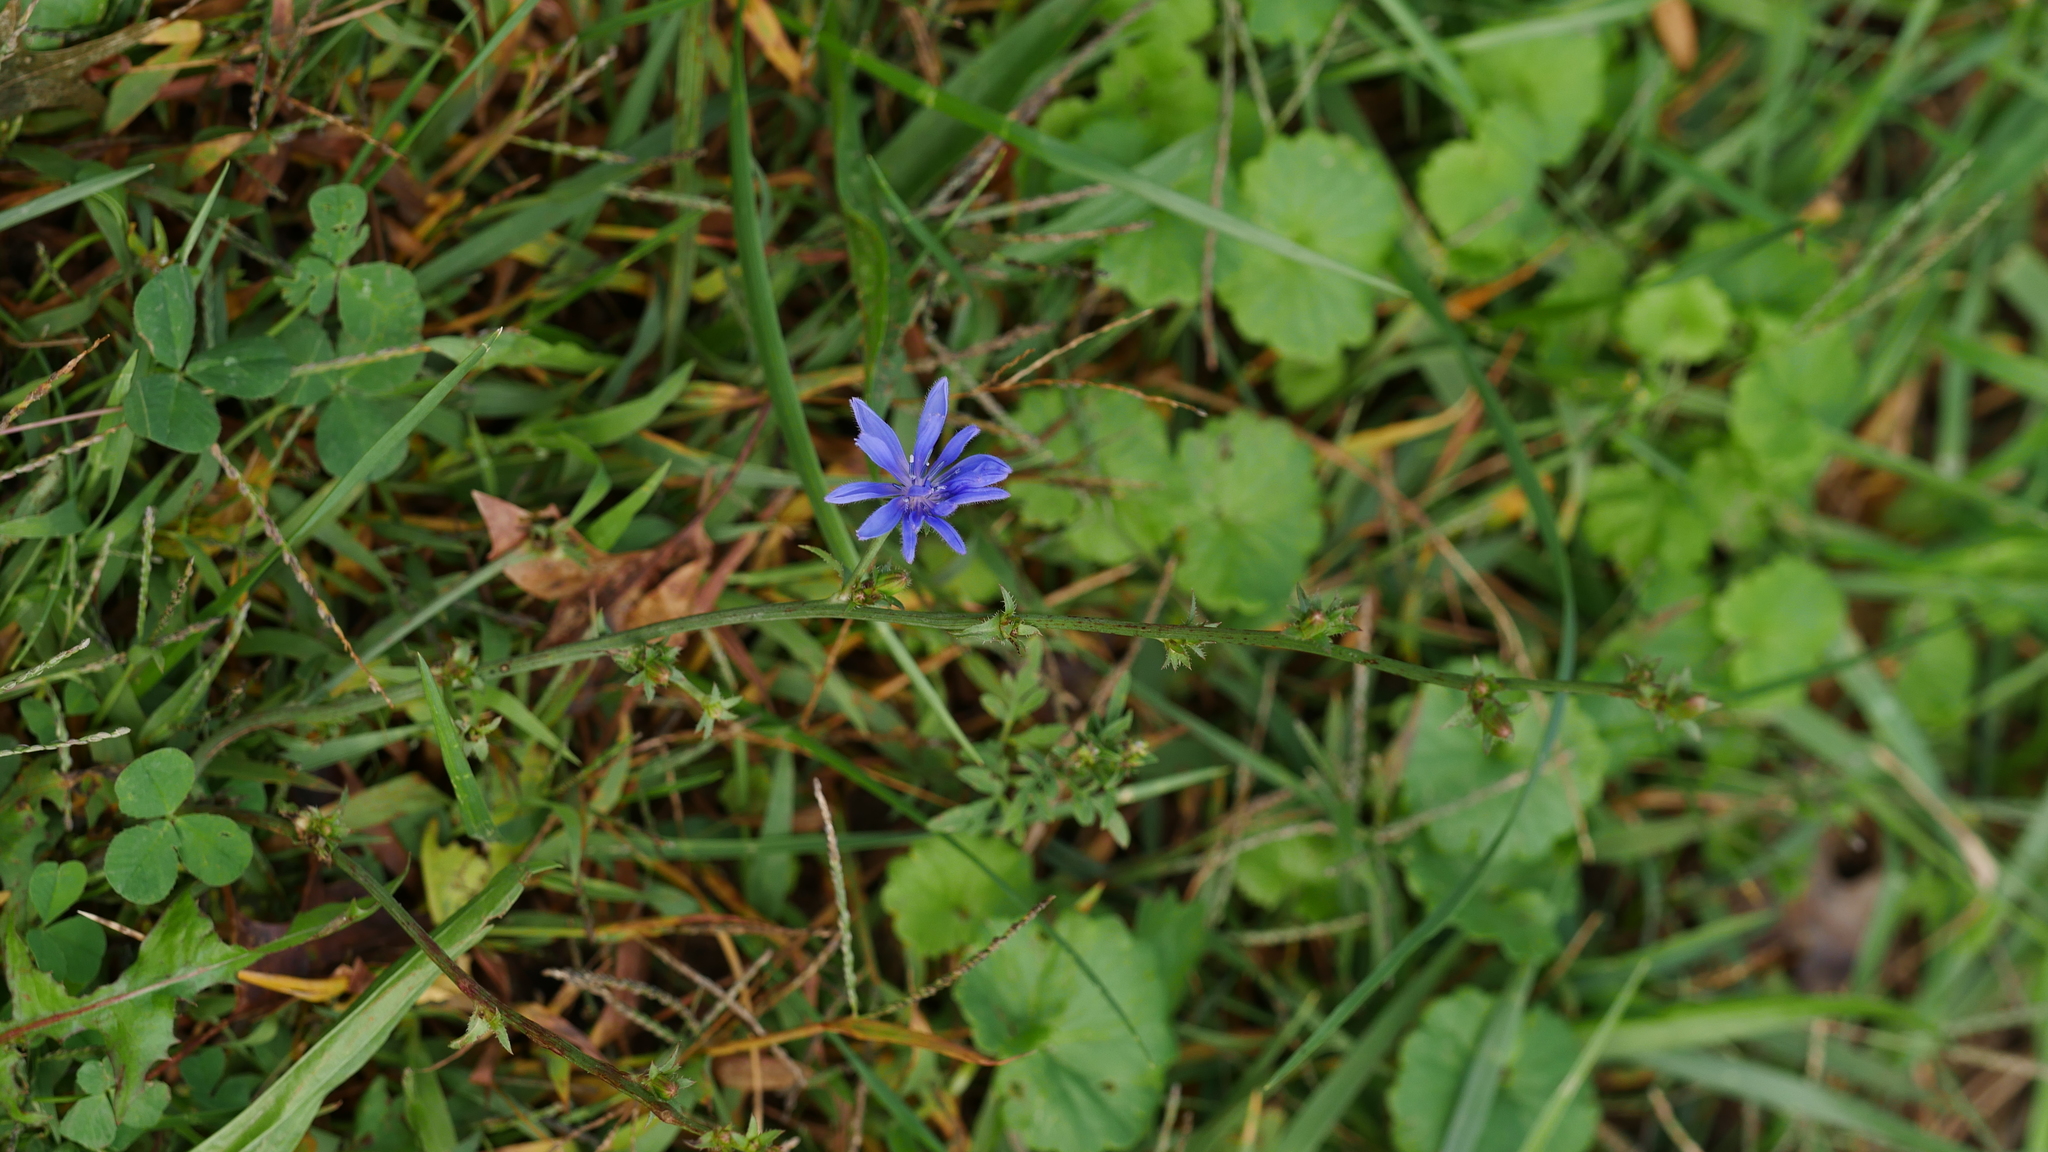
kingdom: Plantae
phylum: Tracheophyta
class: Magnoliopsida
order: Asterales
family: Asteraceae
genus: Cichorium
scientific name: Cichorium intybus
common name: Chicory
